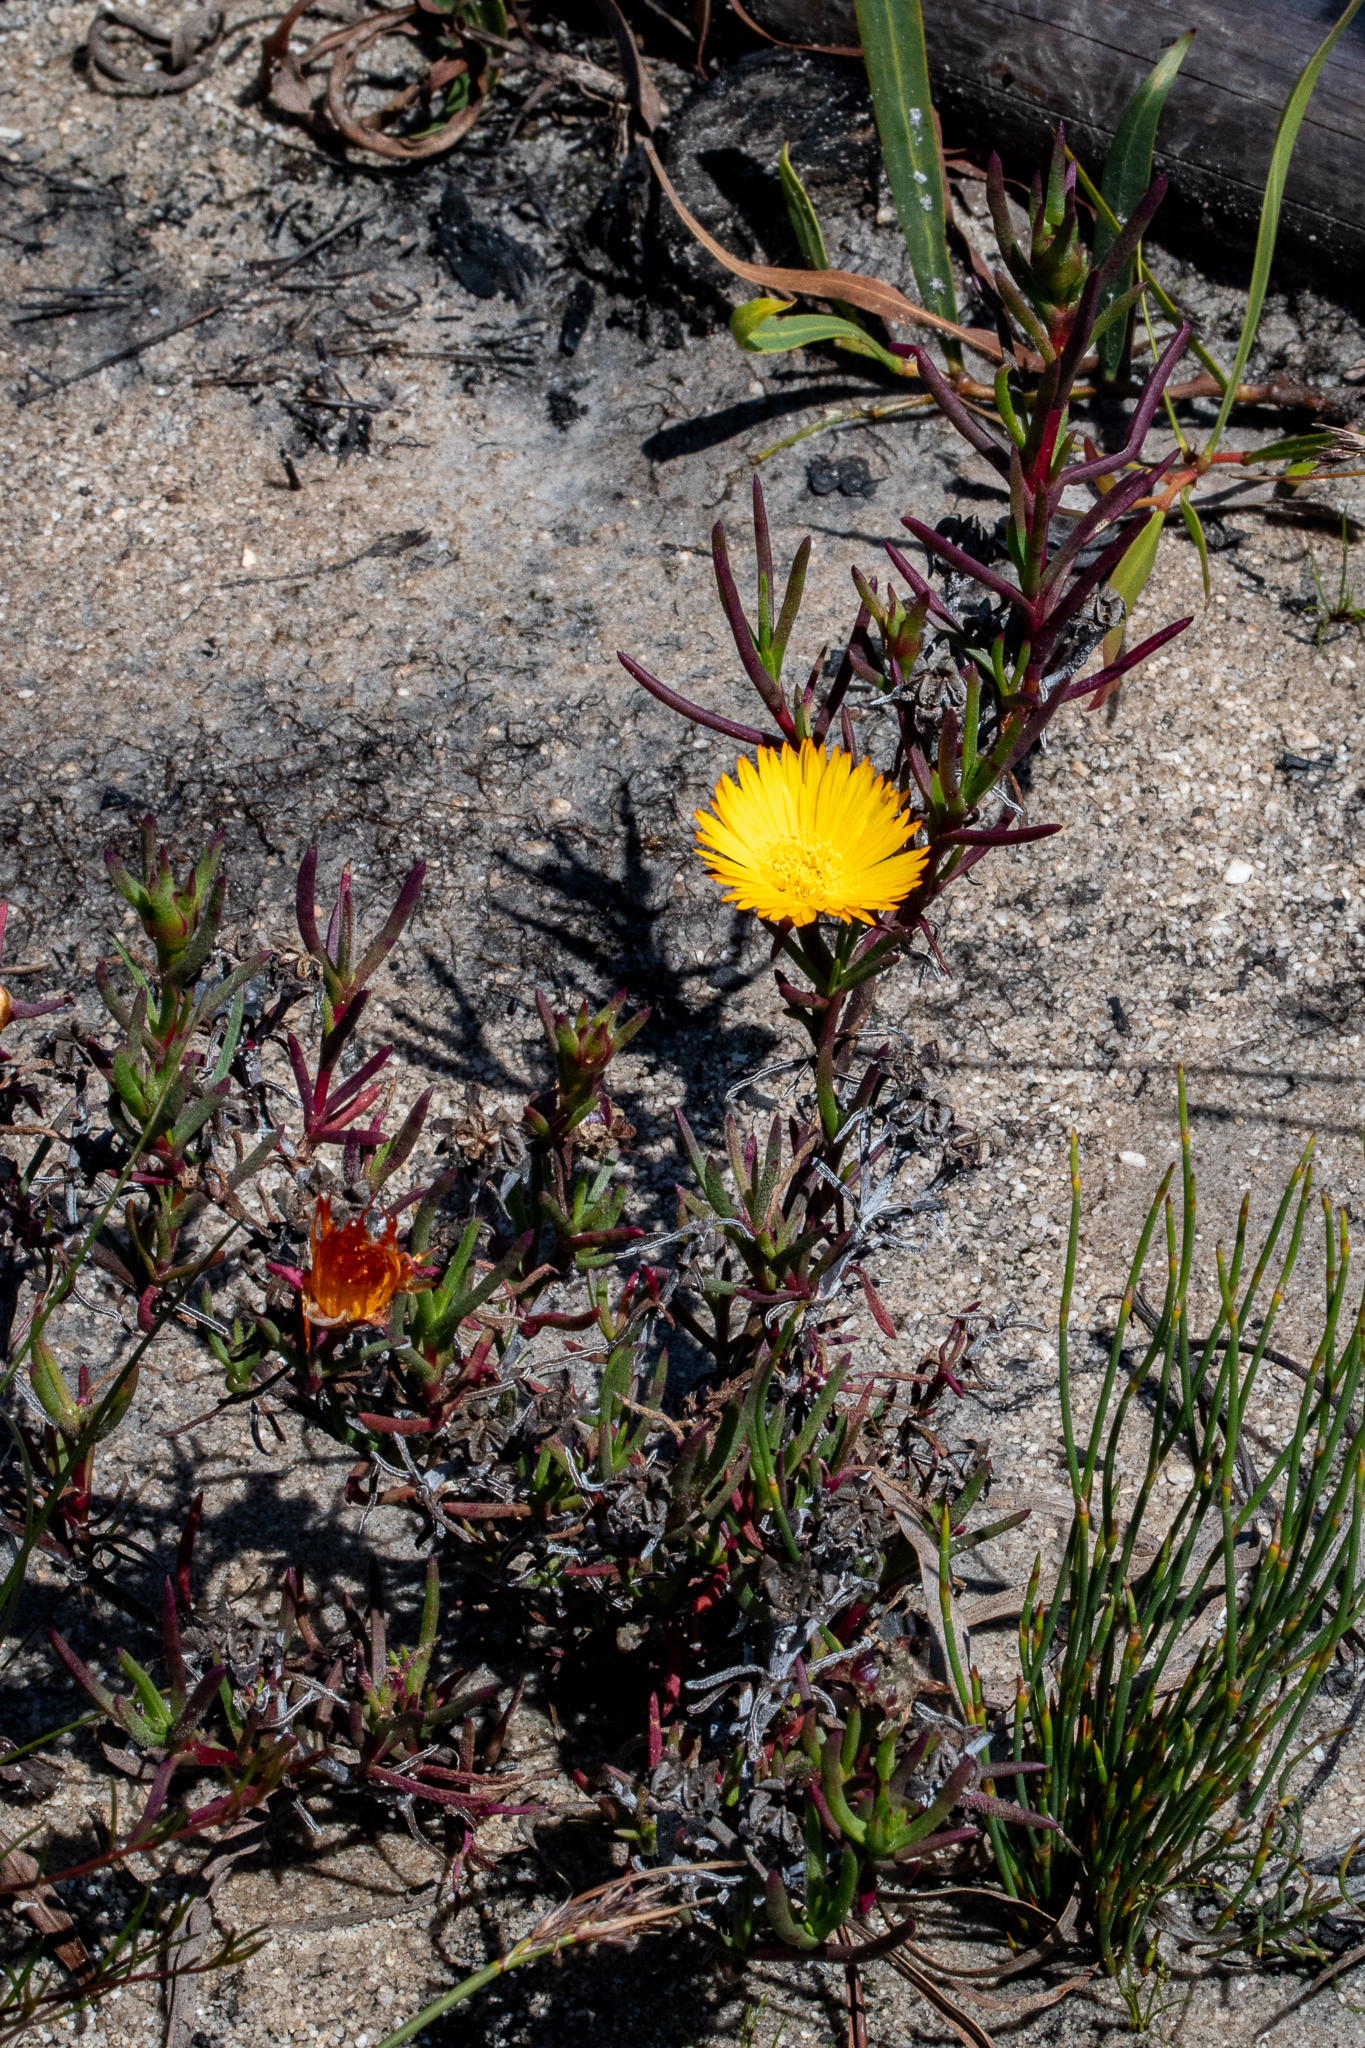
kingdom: Plantae
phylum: Tracheophyta
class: Magnoliopsida
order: Caryophyllales
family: Aizoaceae
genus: Lampranthus
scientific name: Lampranthus bicolor
